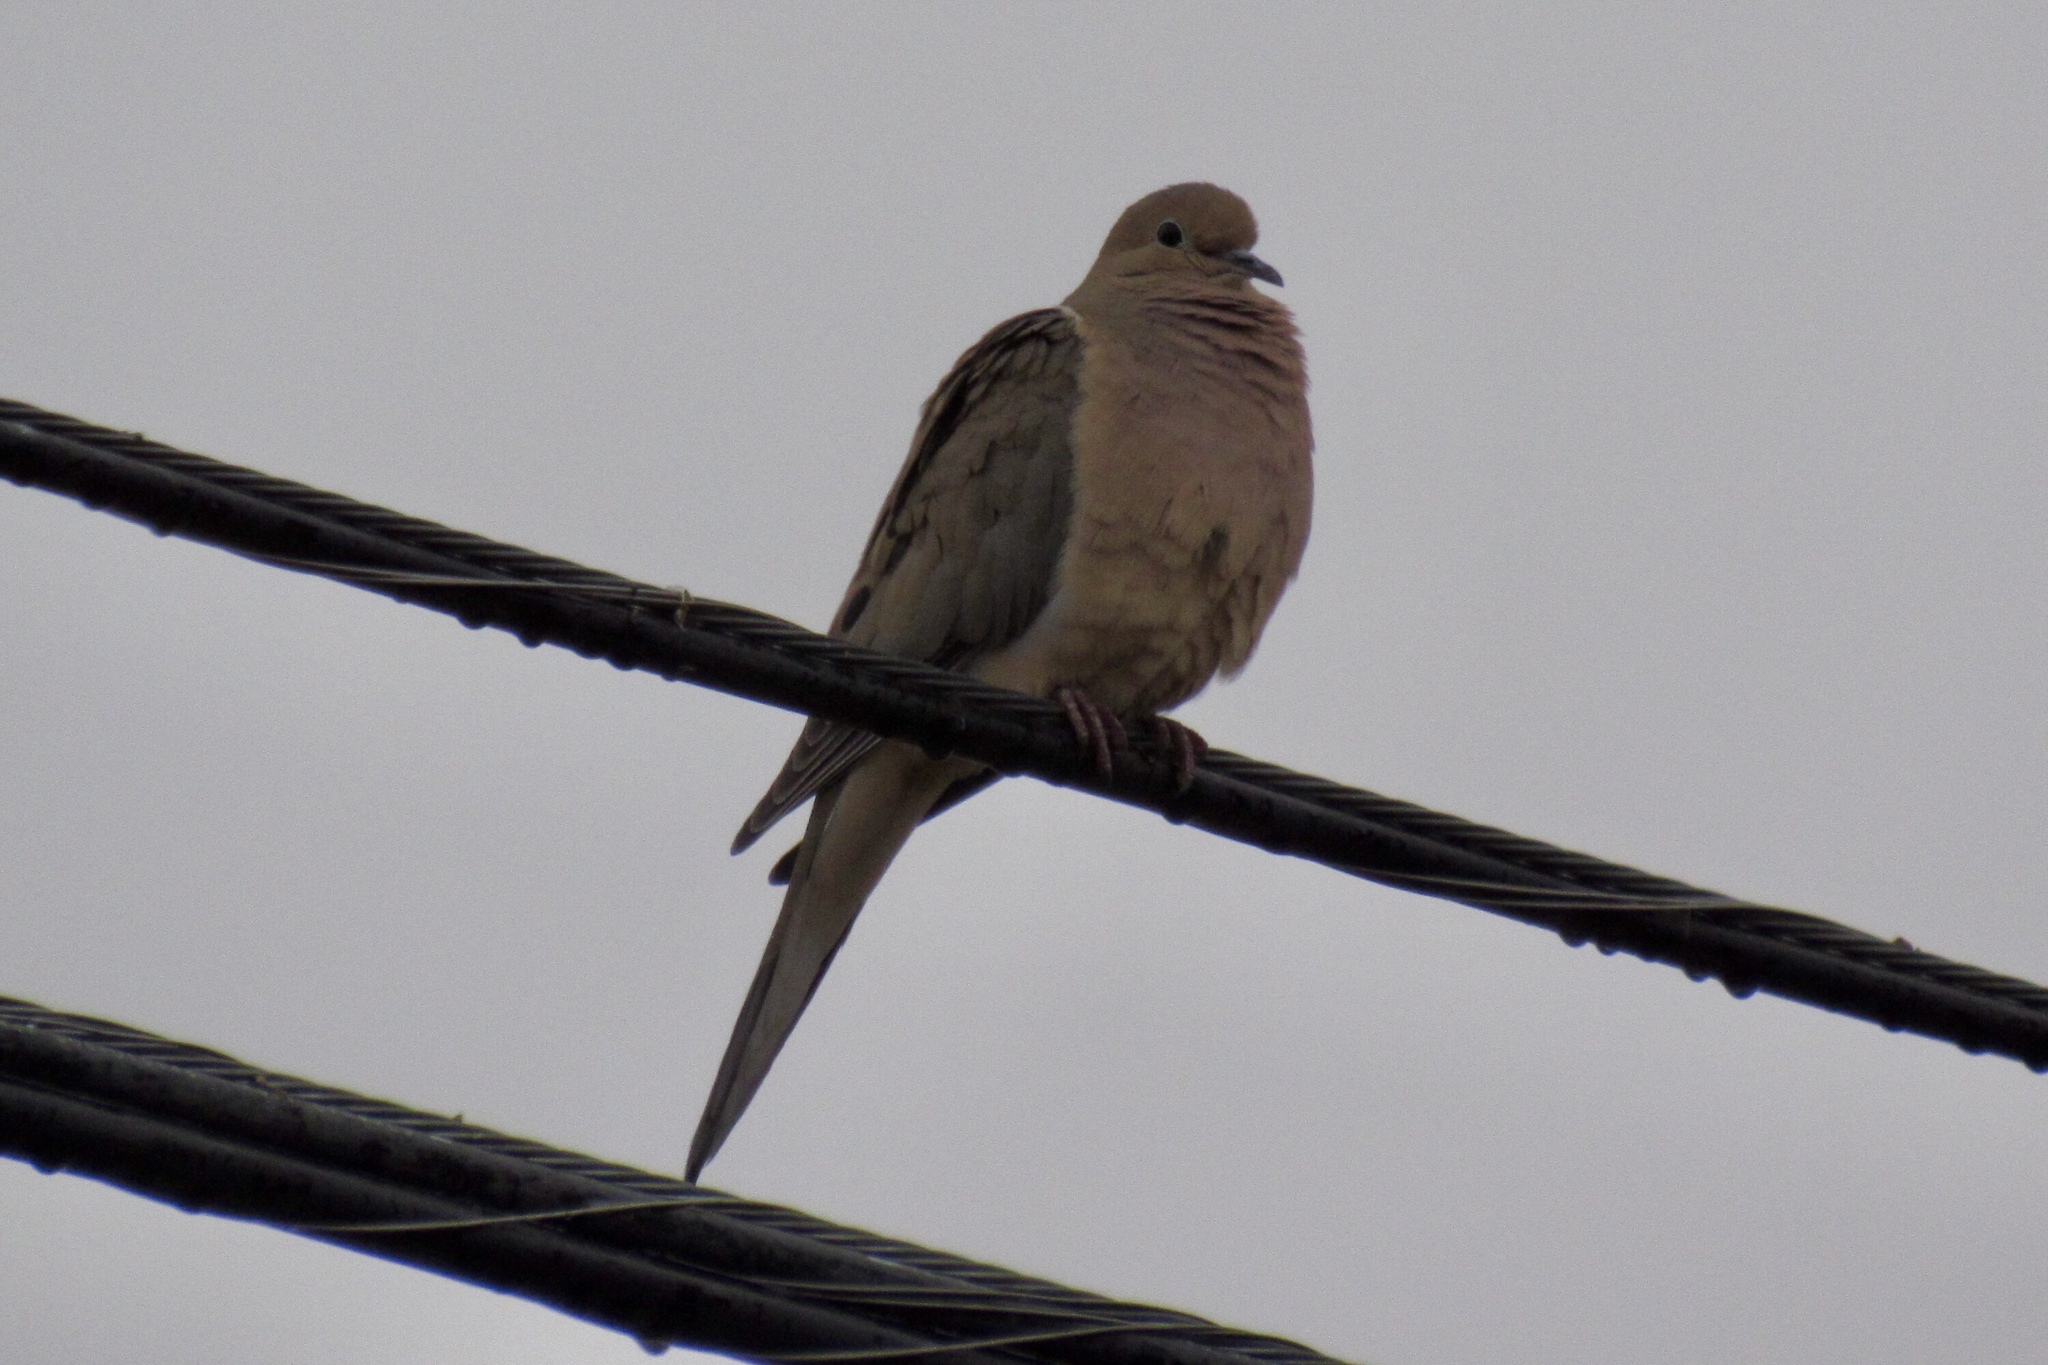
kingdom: Animalia
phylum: Chordata
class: Aves
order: Columbiformes
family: Columbidae
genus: Zenaida
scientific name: Zenaida macroura
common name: Mourning dove
